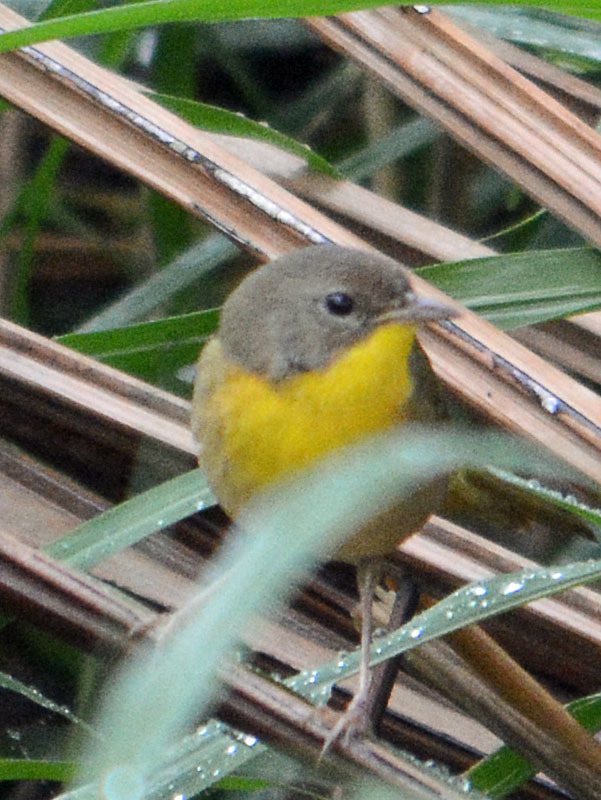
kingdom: Animalia
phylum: Chordata
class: Aves
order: Passeriformes
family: Parulidae
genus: Geothlypis
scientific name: Geothlypis trichas
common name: Common yellowthroat
